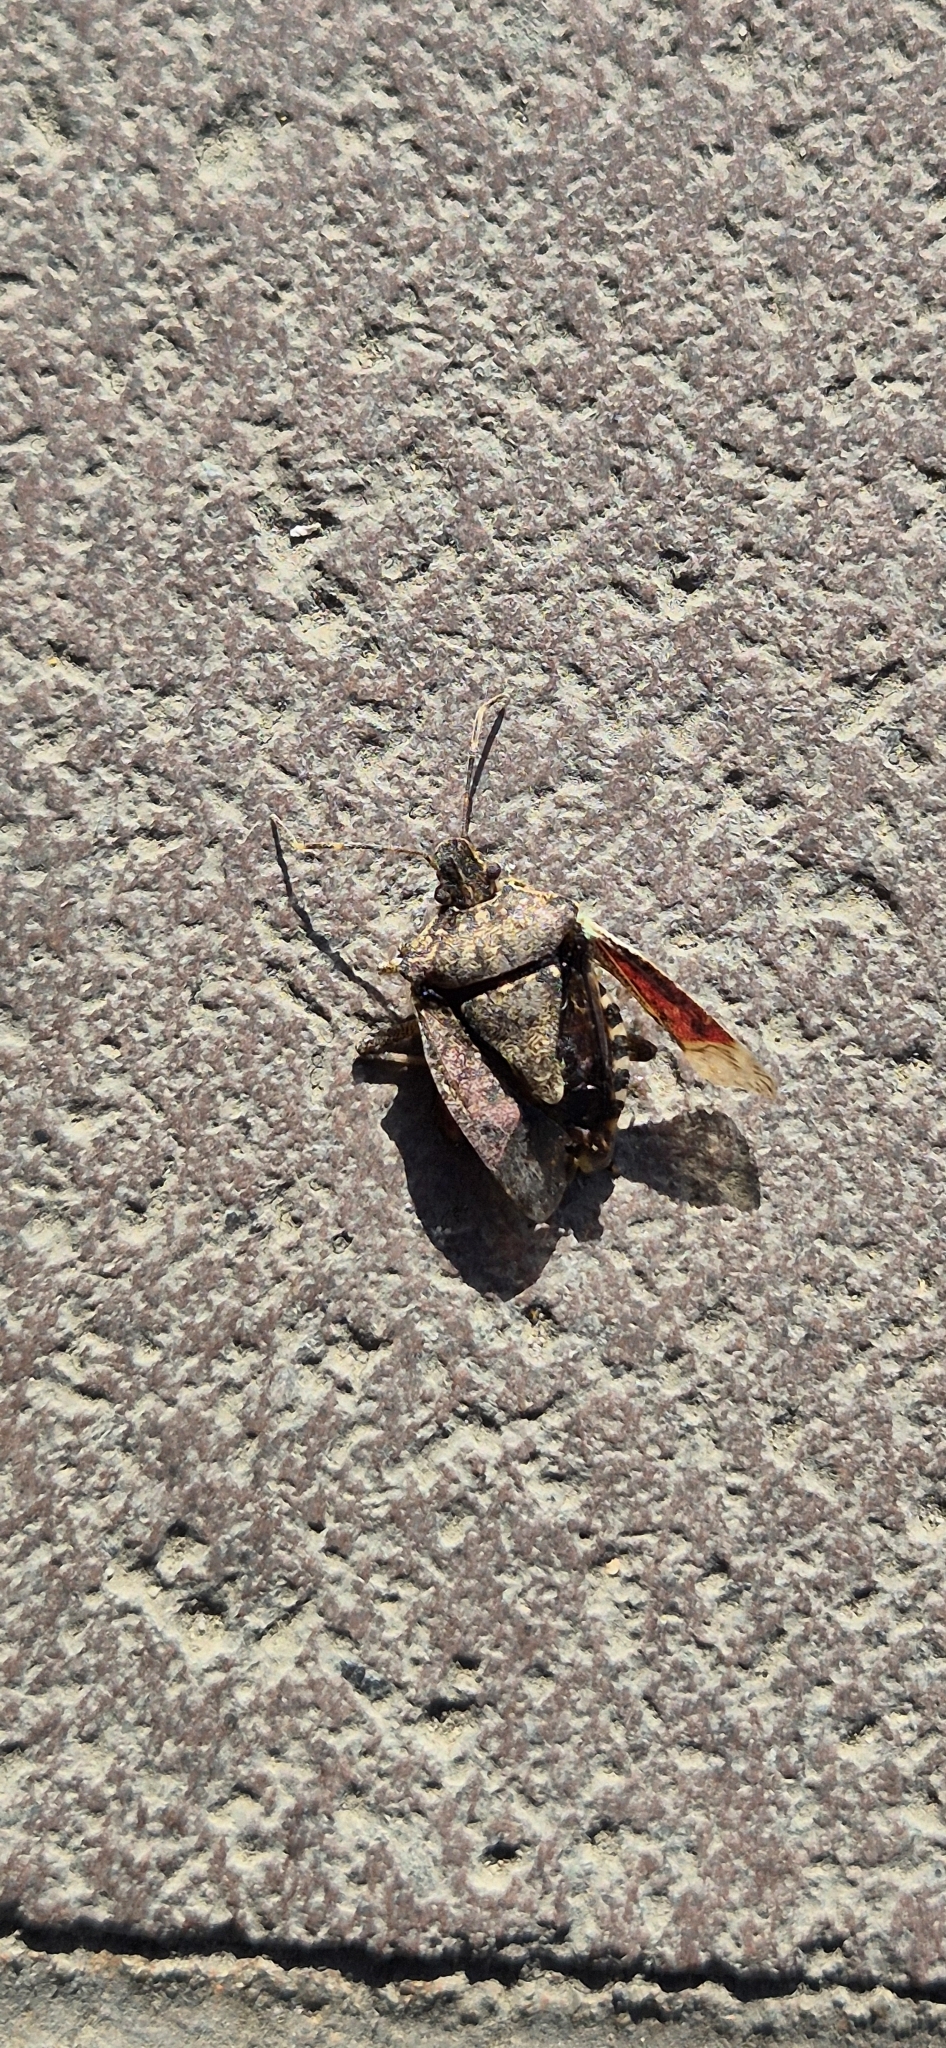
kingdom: Animalia
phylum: Arthropoda
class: Insecta
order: Hemiptera
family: Pentatomidae
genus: Halyomorpha
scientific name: Halyomorpha halys
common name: Brown marmorated stink bug
